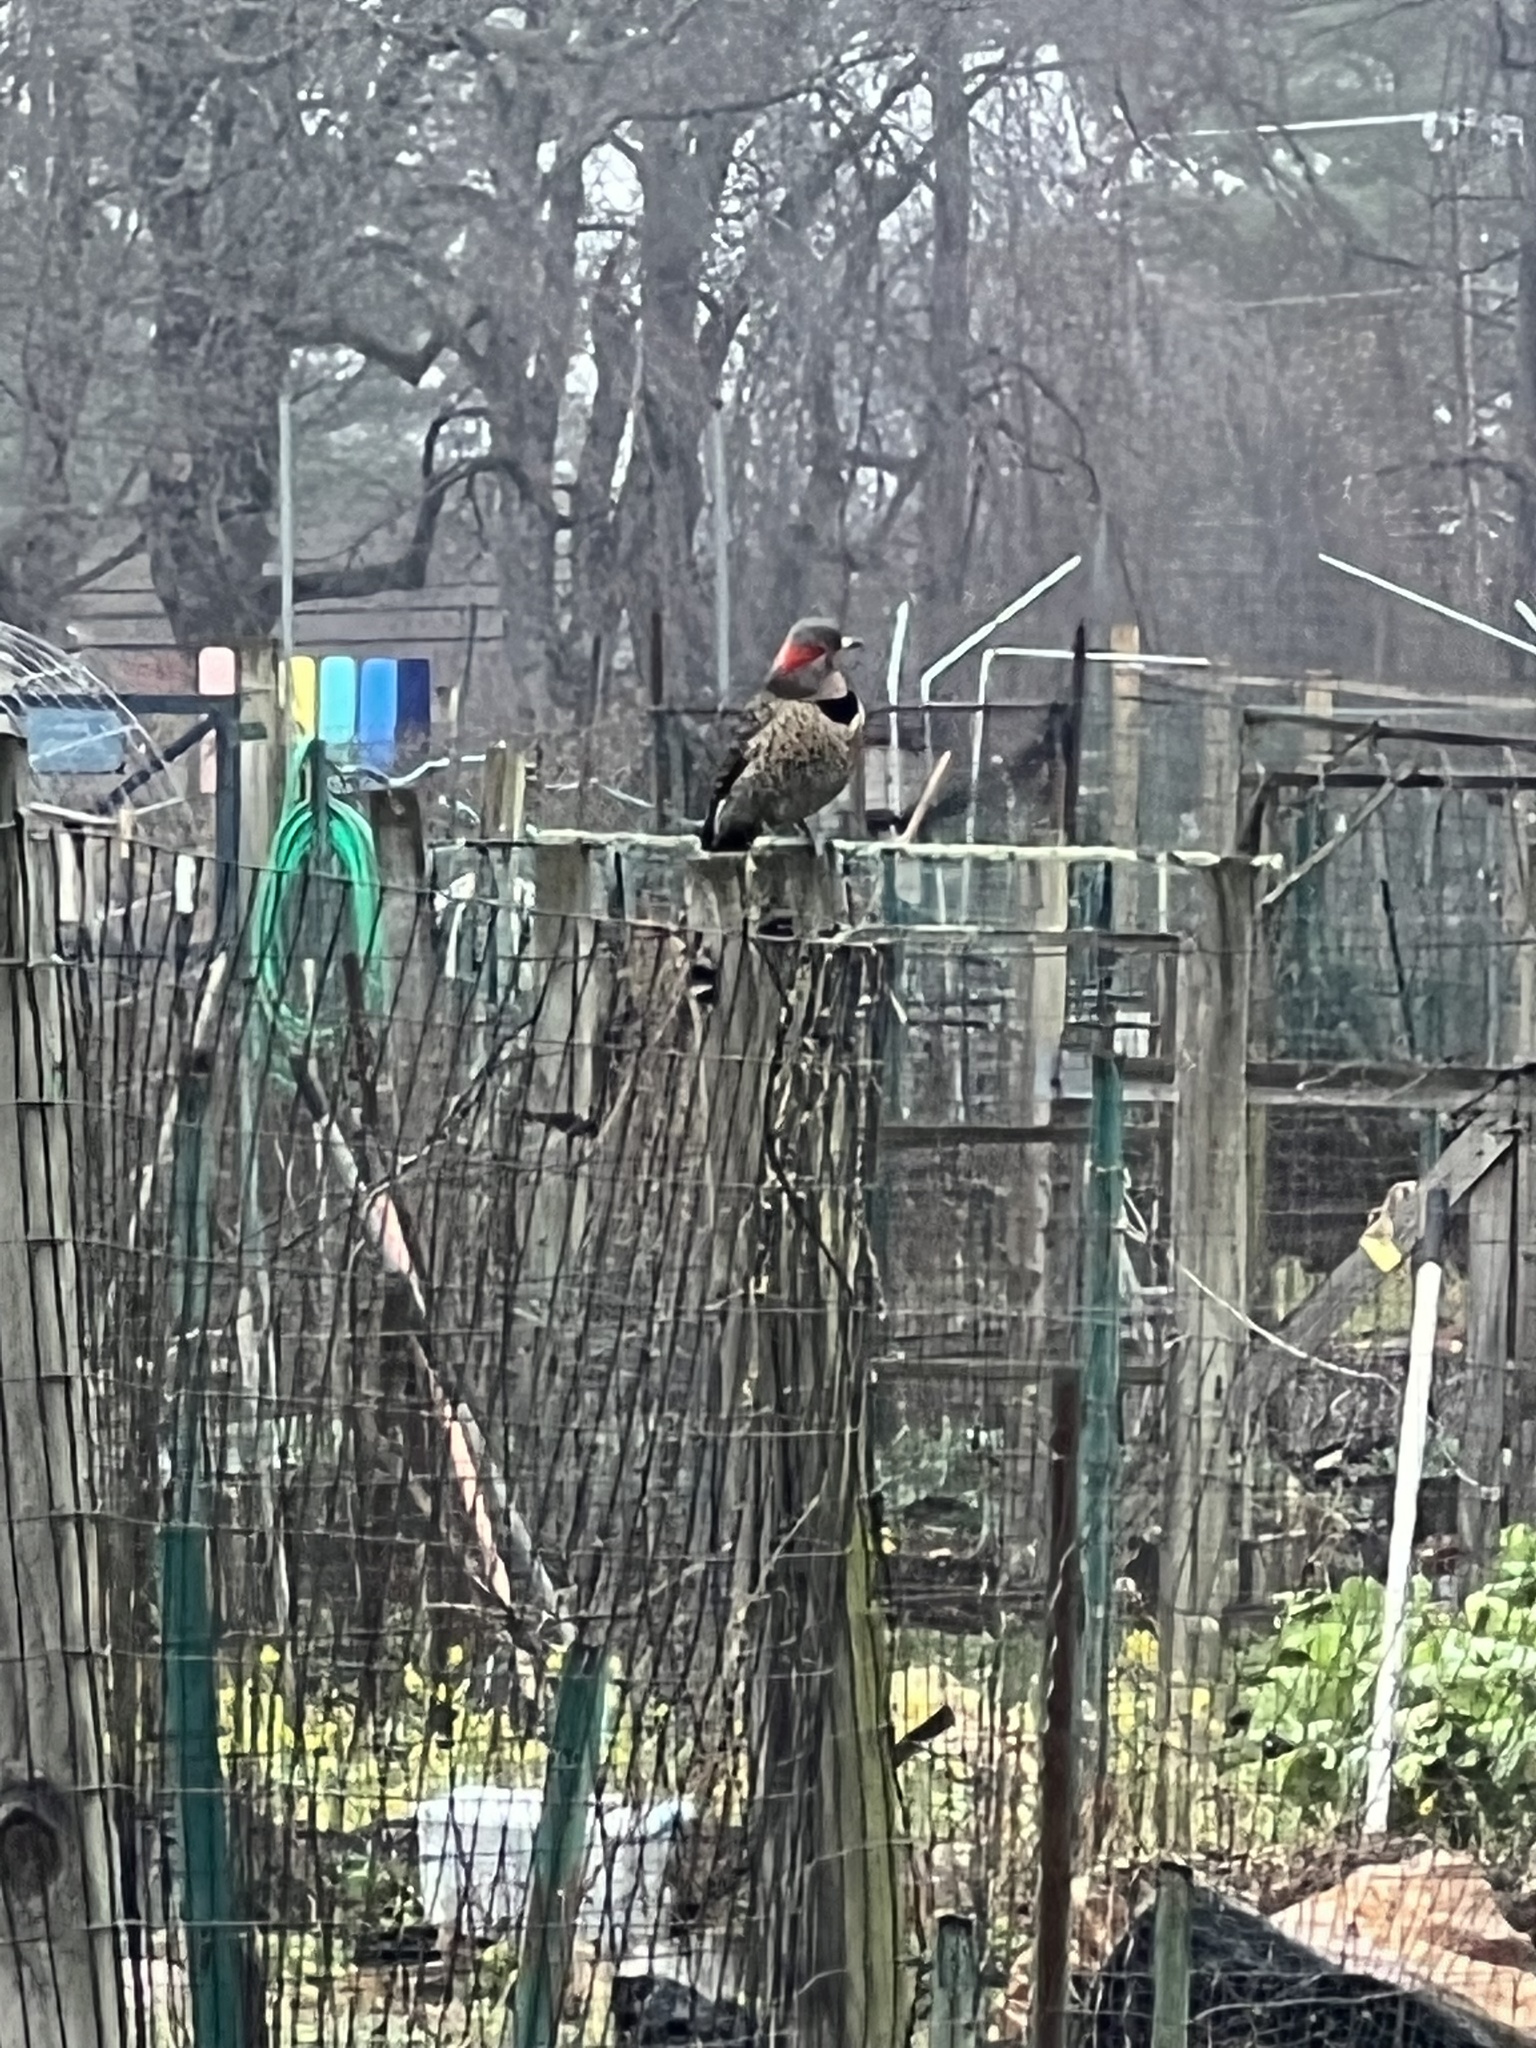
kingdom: Animalia
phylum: Chordata
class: Aves
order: Piciformes
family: Picidae
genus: Colaptes
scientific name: Colaptes auratus
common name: Northern flicker
